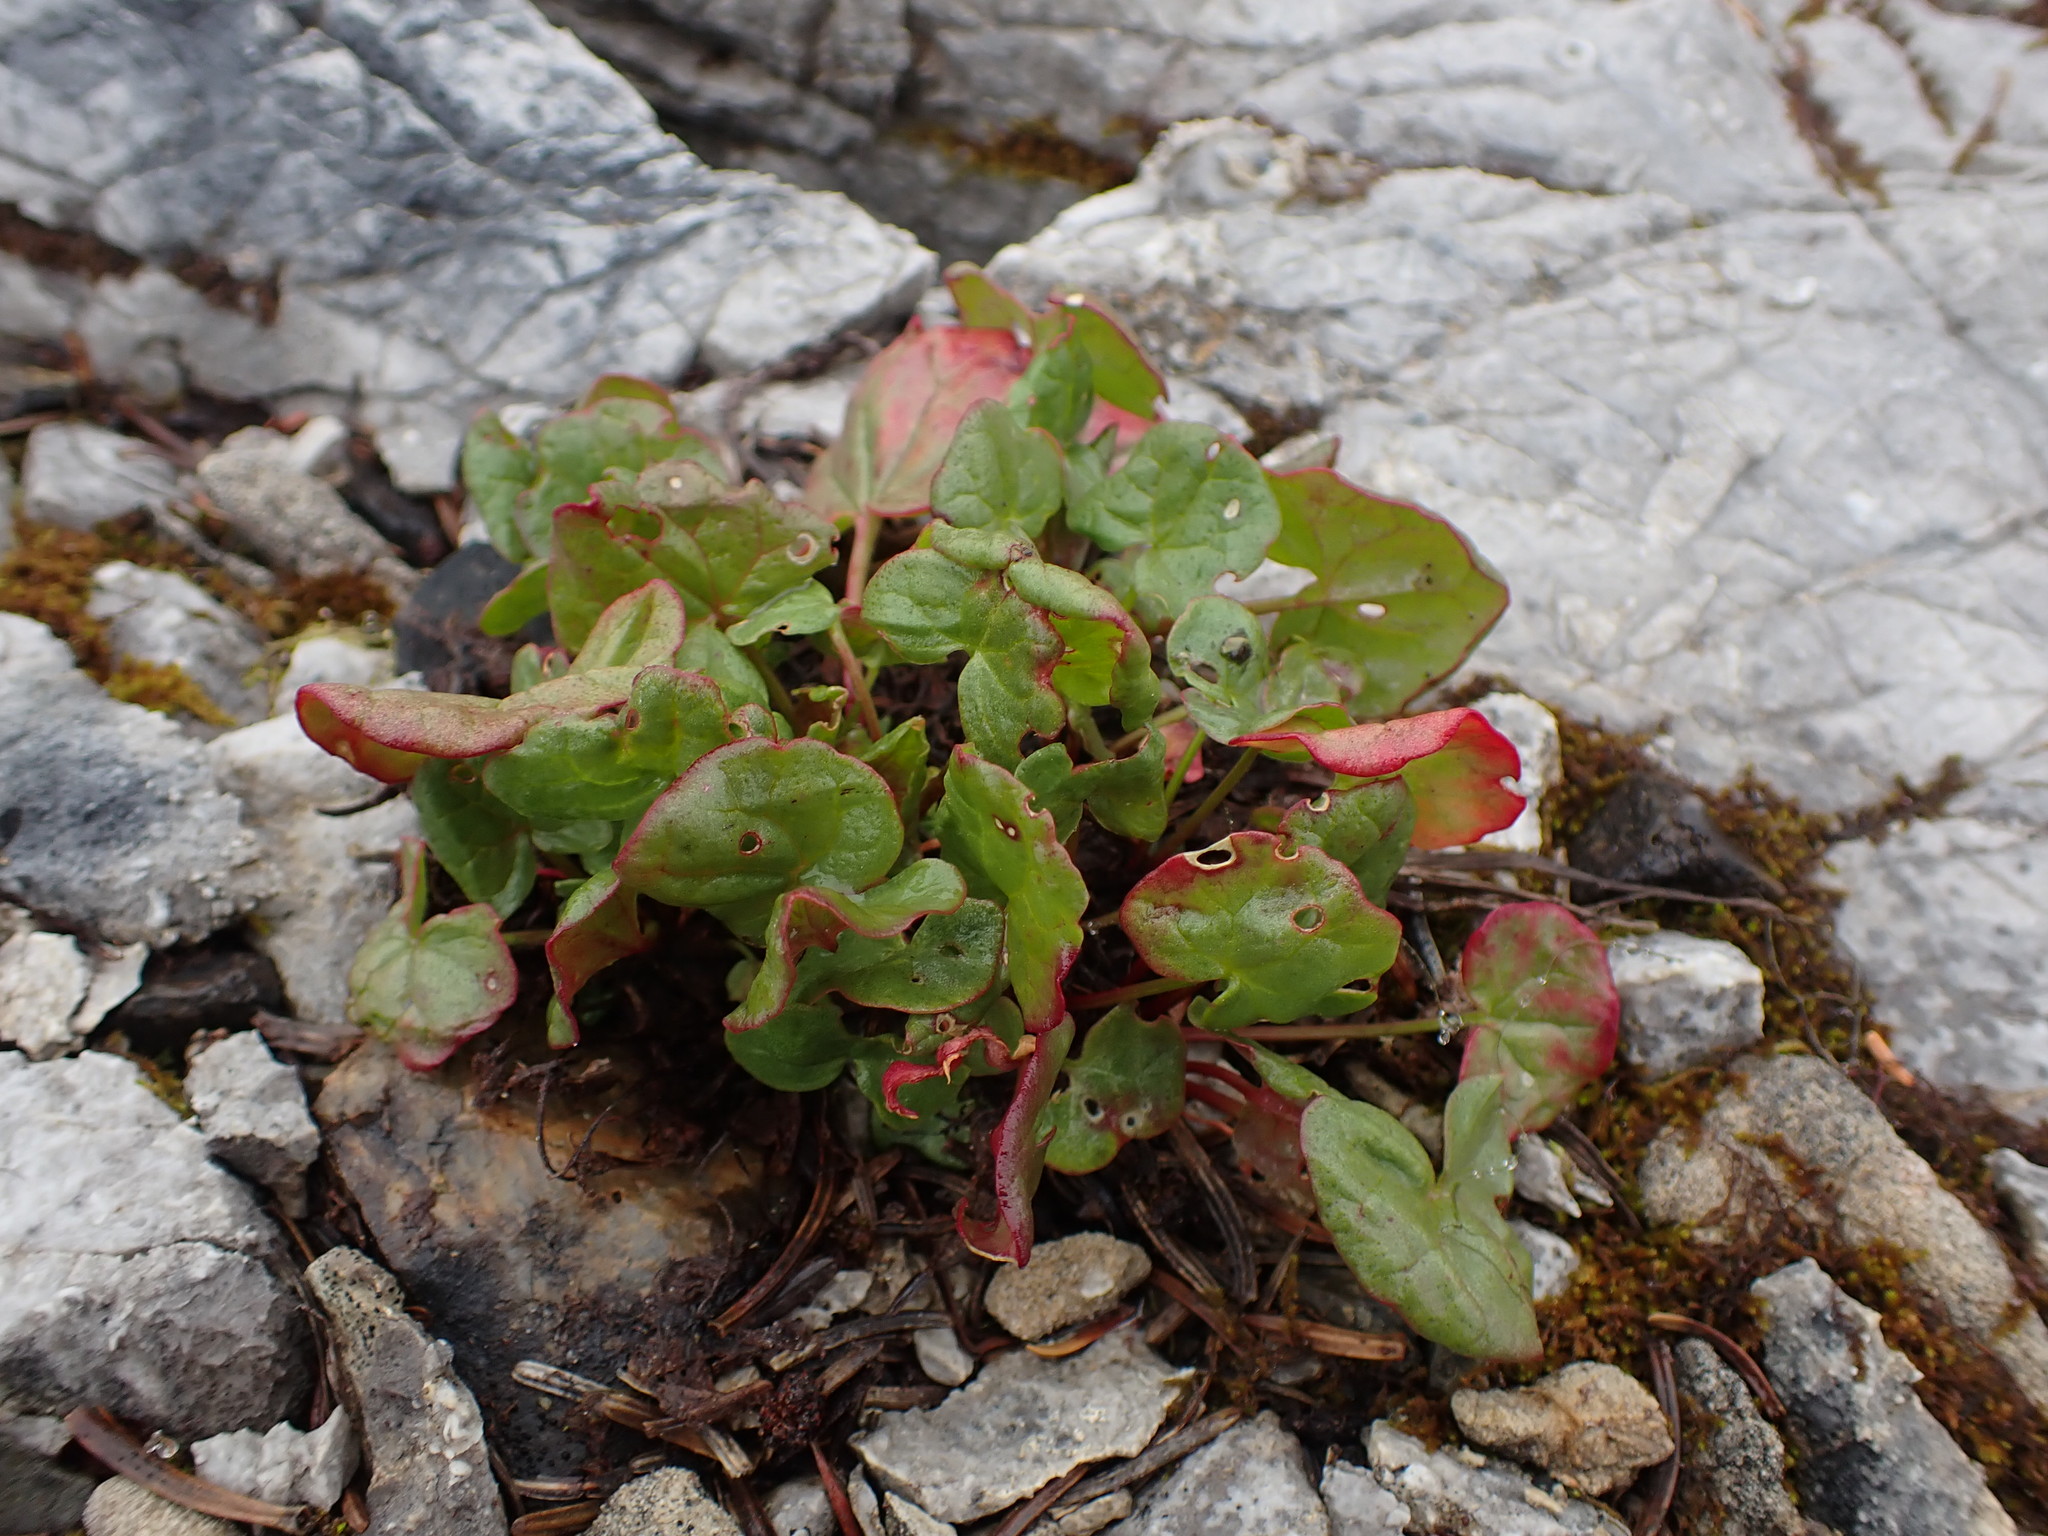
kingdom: Plantae
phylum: Tracheophyta
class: Magnoliopsida
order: Caryophyllales
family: Polygonaceae
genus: Oxyria
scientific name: Oxyria digyna
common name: Alpine mountain-sorrel
